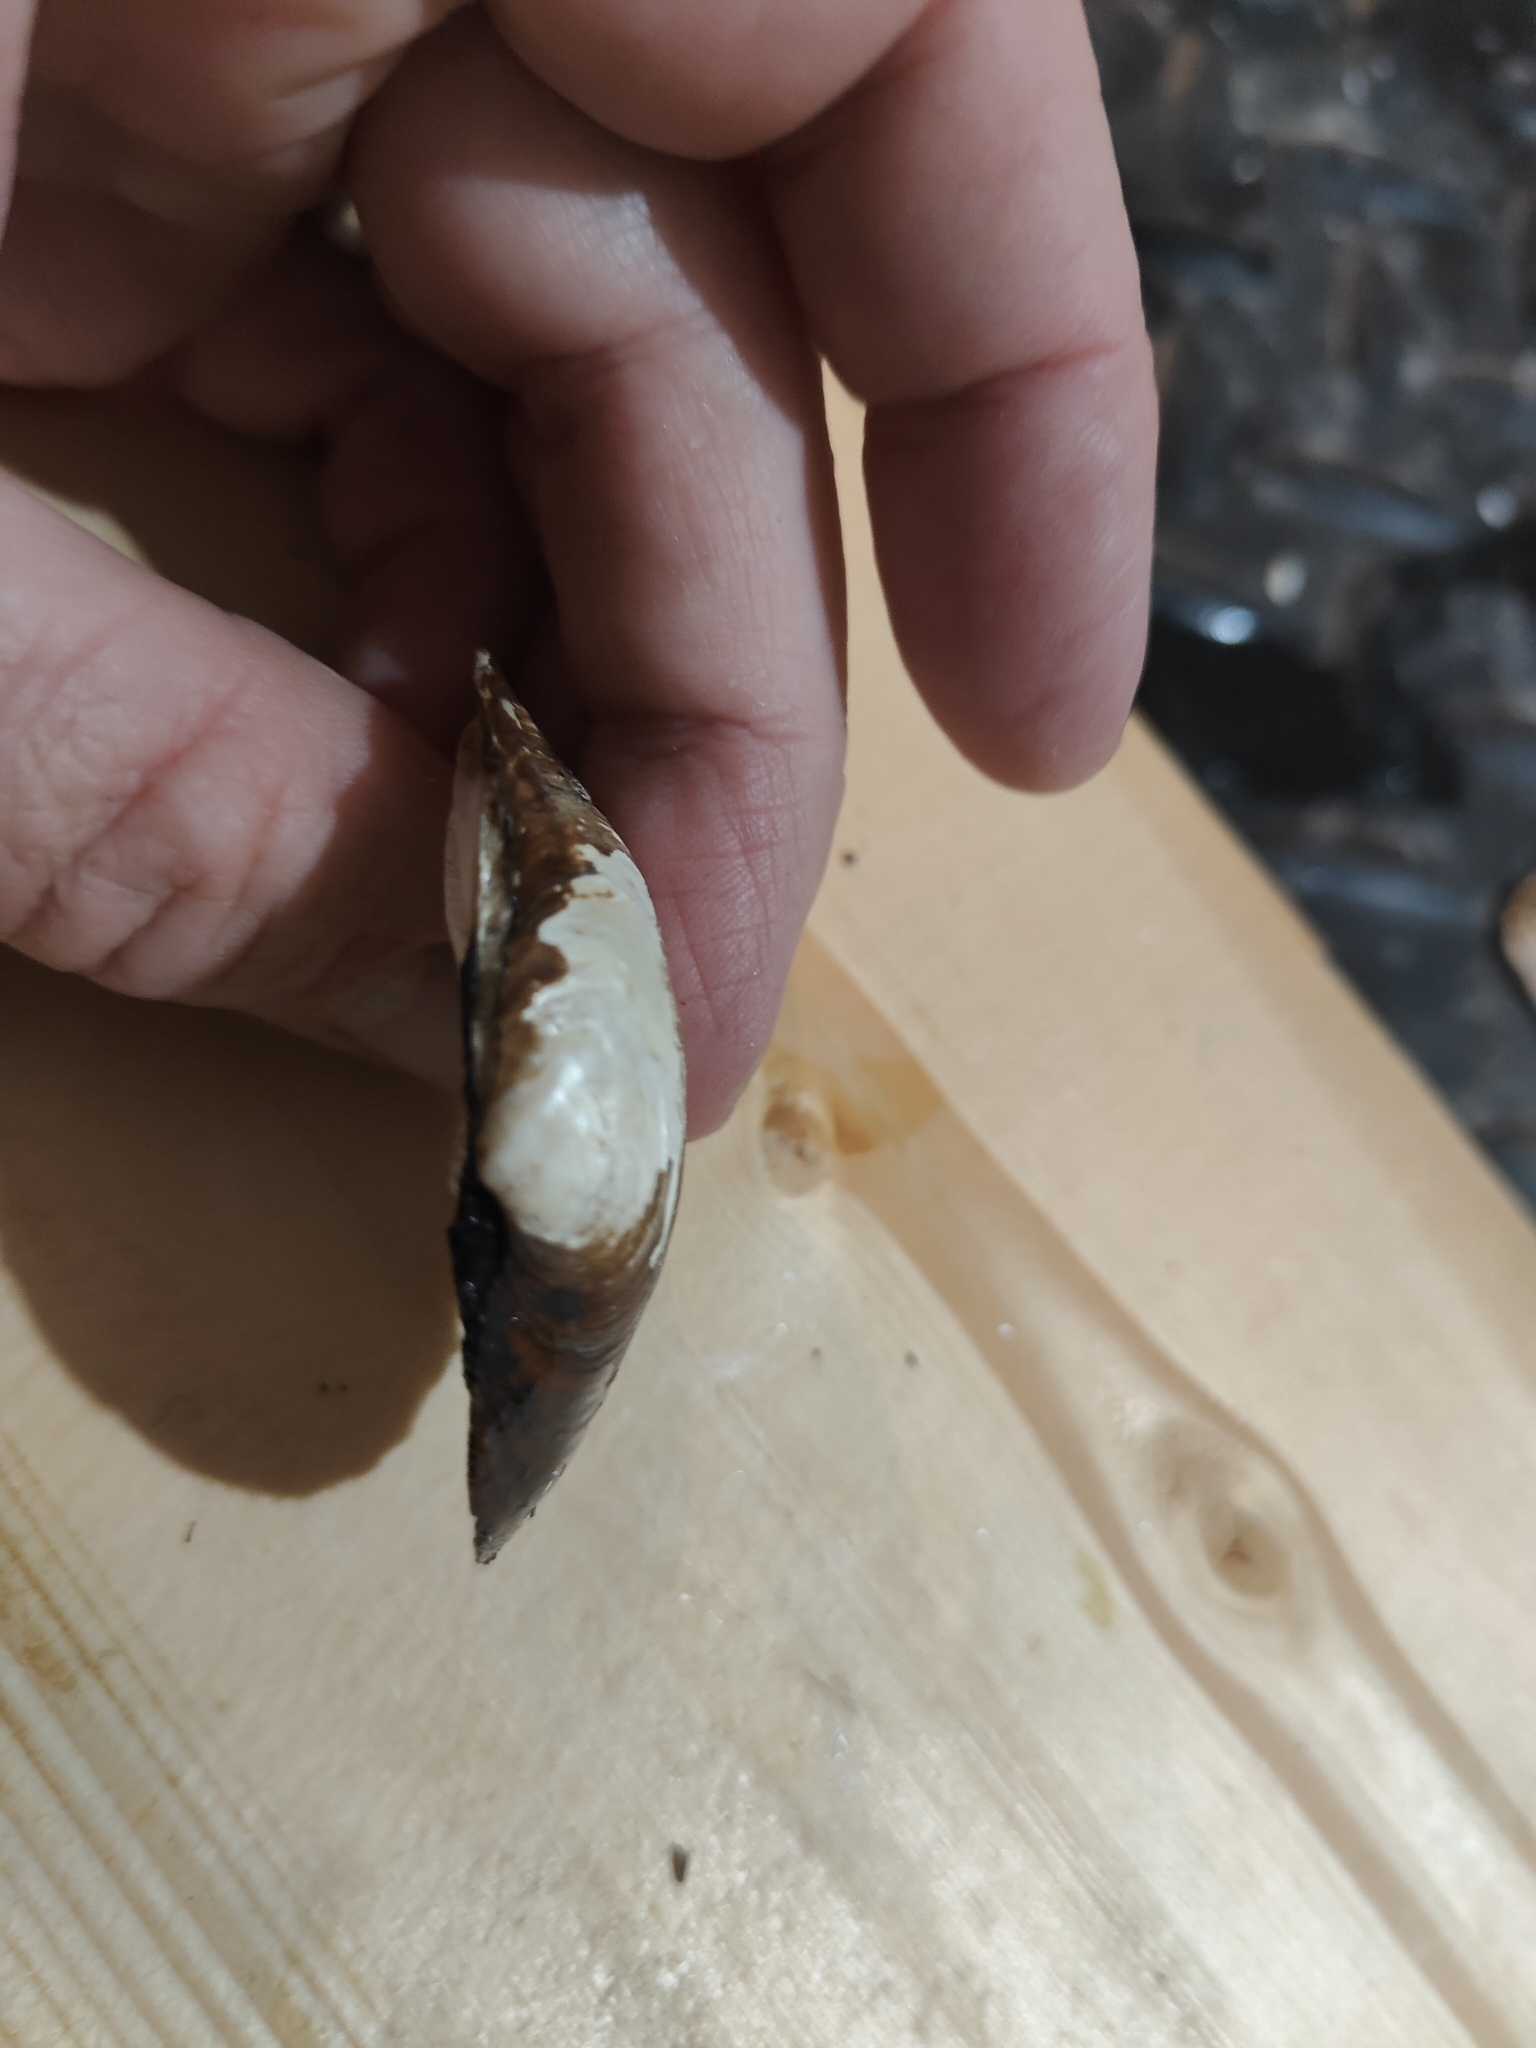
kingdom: Animalia
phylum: Mollusca
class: Bivalvia
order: Unionida
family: Unionidae
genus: Fusconaia
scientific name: Fusconaia flava
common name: Wabash pigtoe
